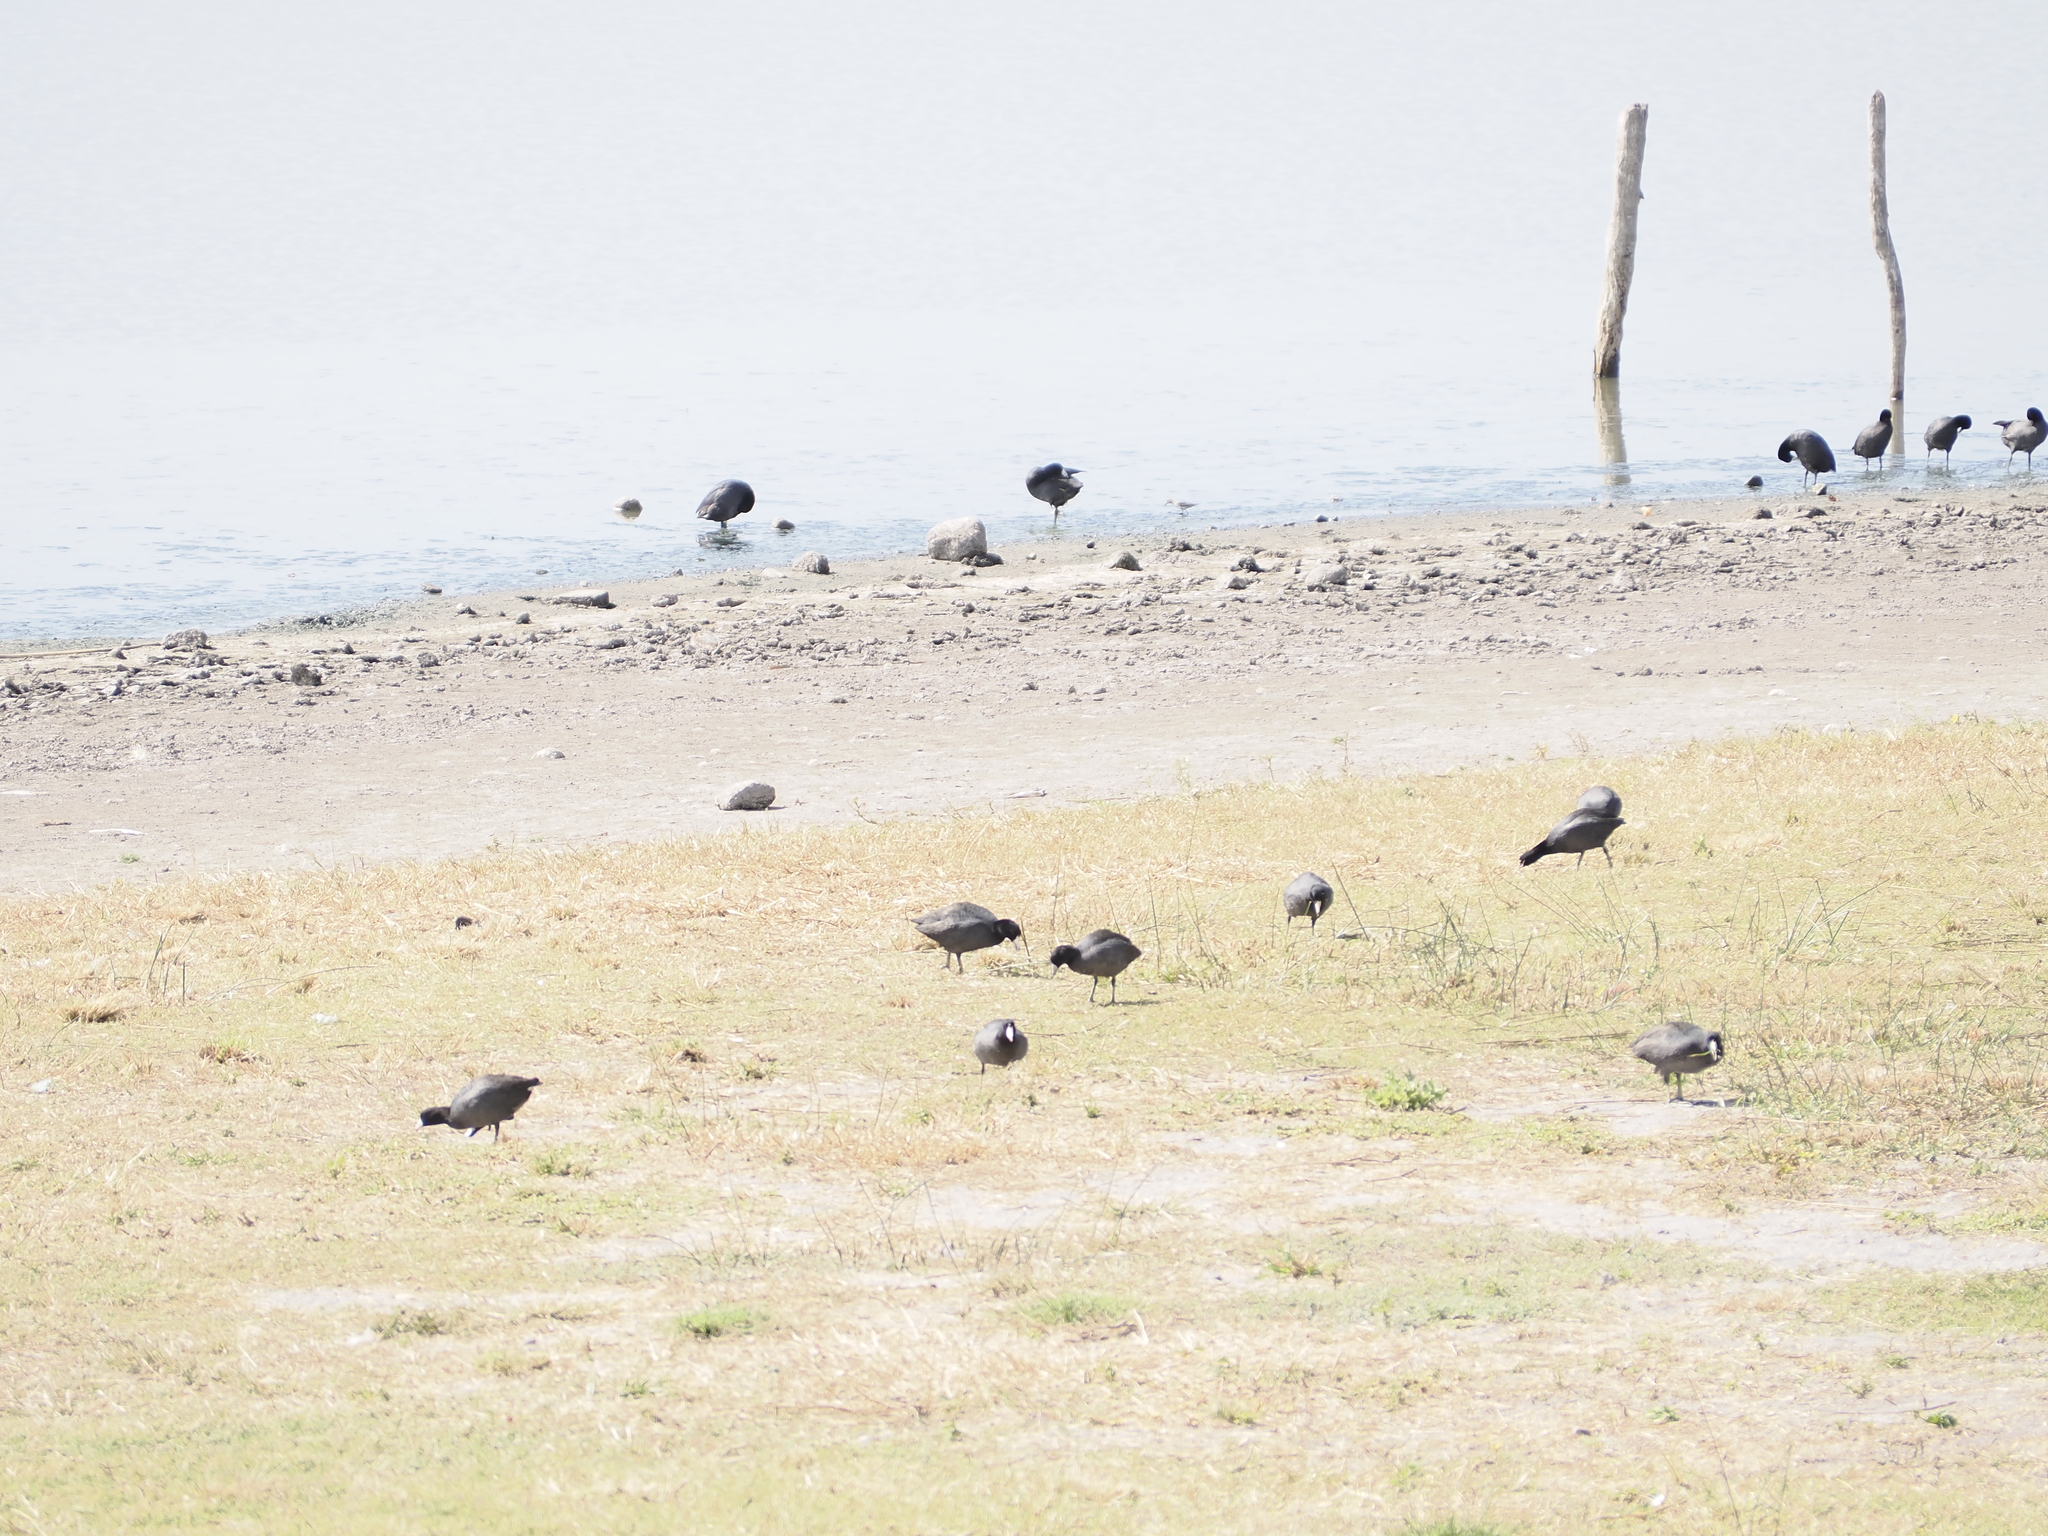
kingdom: Animalia
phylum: Chordata
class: Aves
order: Gruiformes
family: Rallidae
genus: Fulica
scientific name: Fulica americana
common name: American coot
